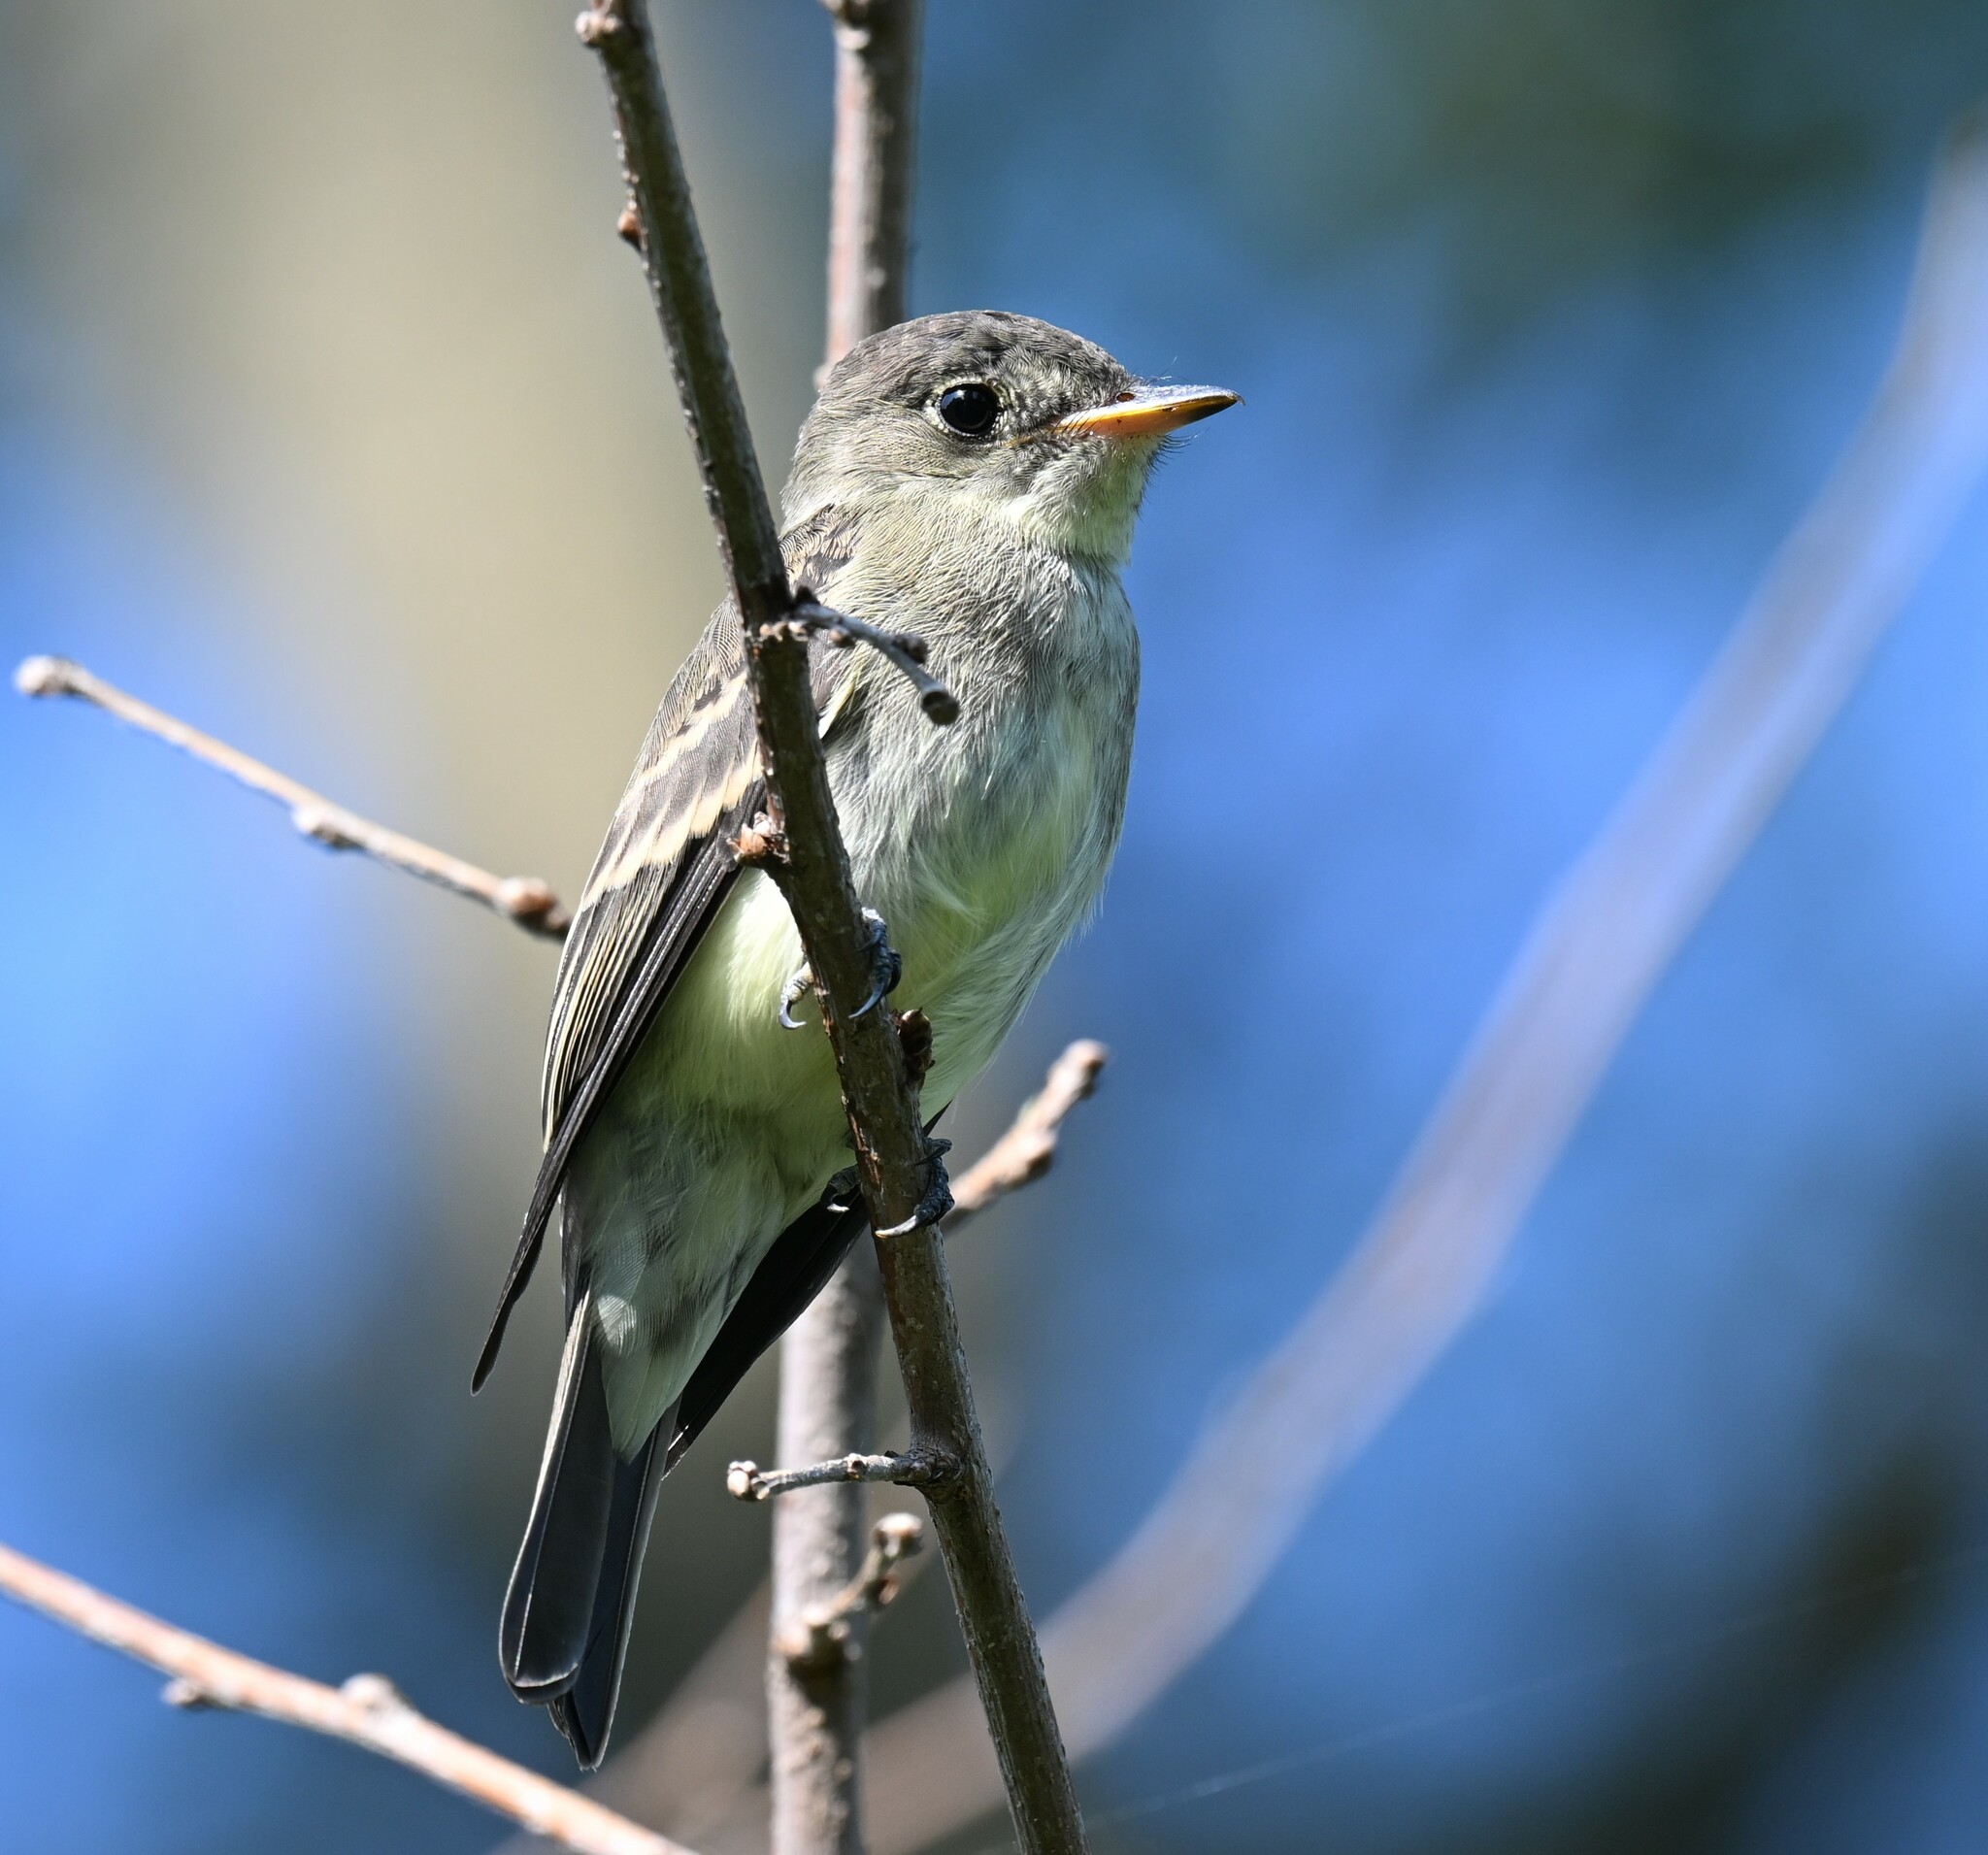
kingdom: Animalia
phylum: Chordata
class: Aves
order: Passeriformes
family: Tyrannidae
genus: Contopus
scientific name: Contopus virens
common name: Eastern wood-pewee
